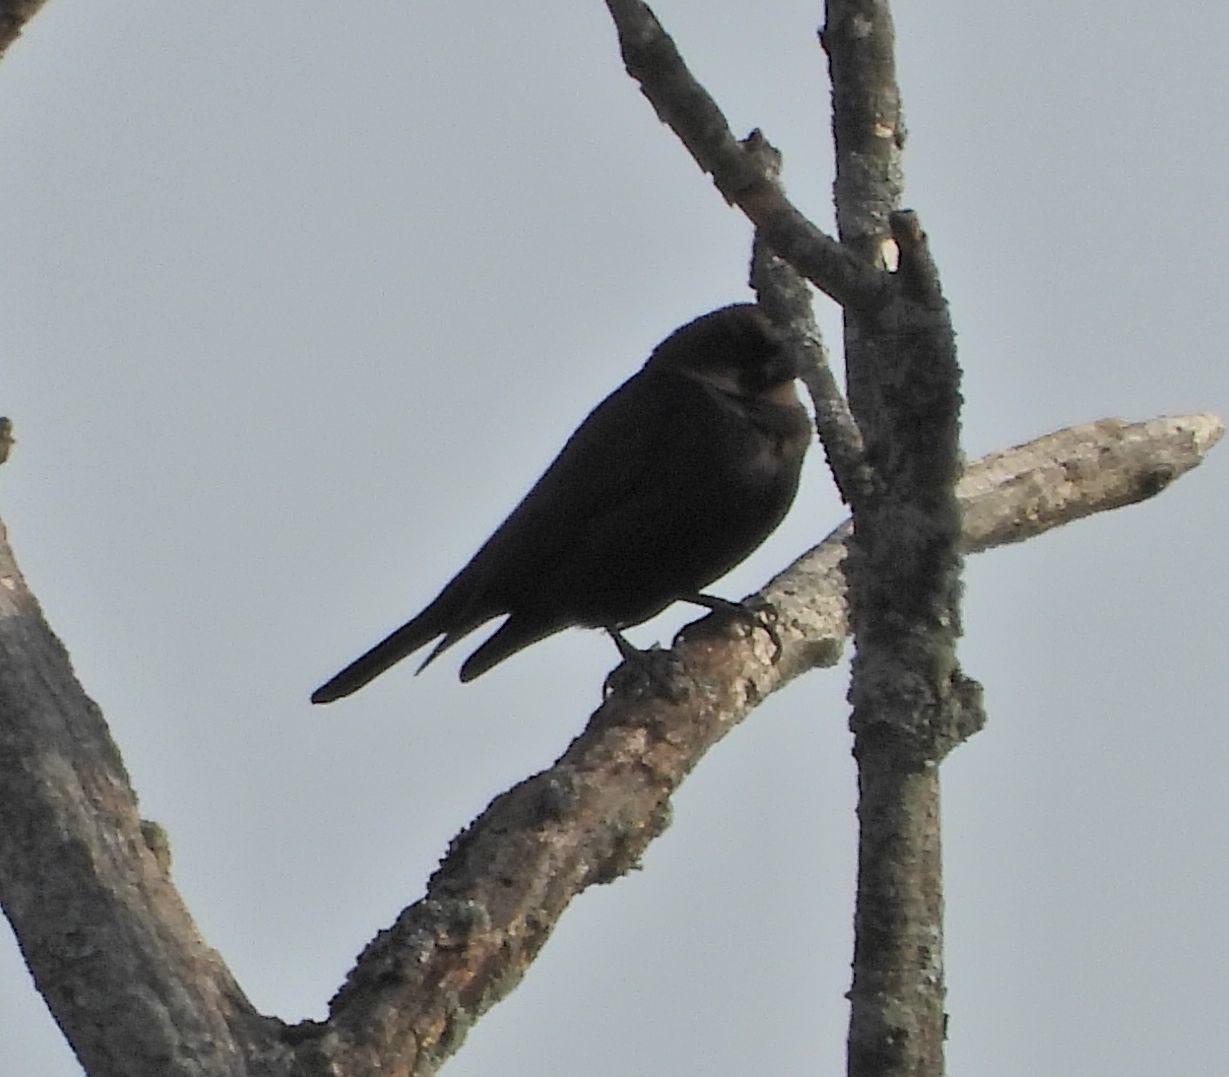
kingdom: Animalia
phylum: Chordata
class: Aves
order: Passeriformes
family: Icteridae
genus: Molothrus
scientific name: Molothrus ater
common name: Brown-headed cowbird
